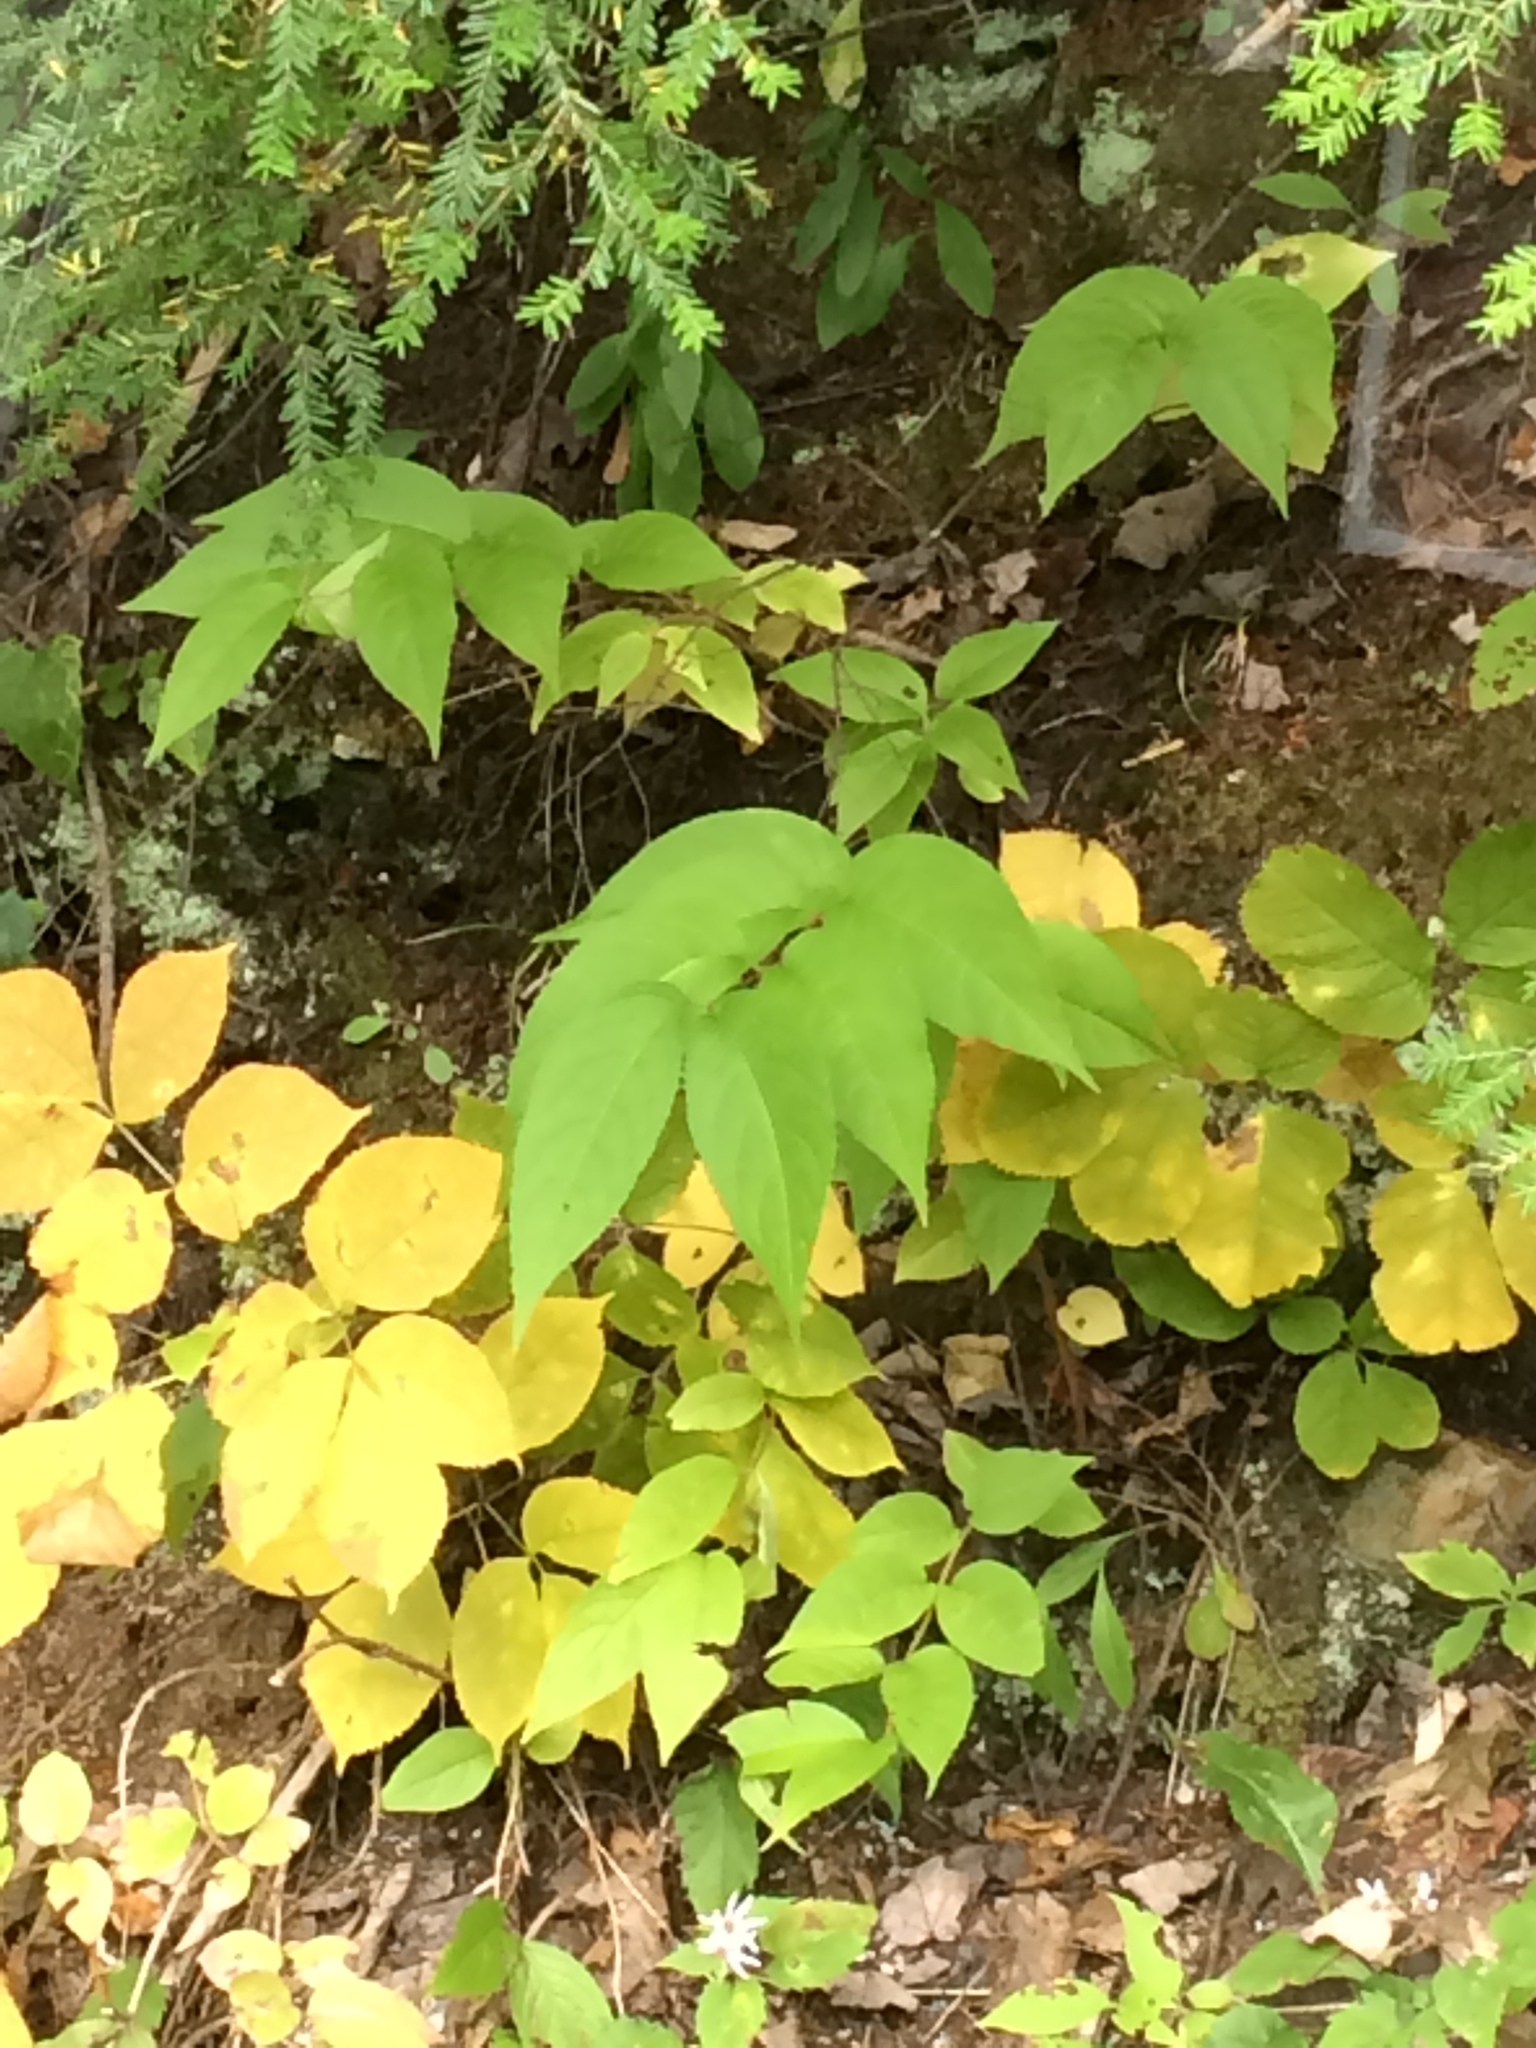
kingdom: Plantae
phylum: Tracheophyta
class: Magnoliopsida
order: Dipsacales
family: Caprifoliaceae
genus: Diervilla
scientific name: Diervilla lonicera
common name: Bush-honeysuckle
